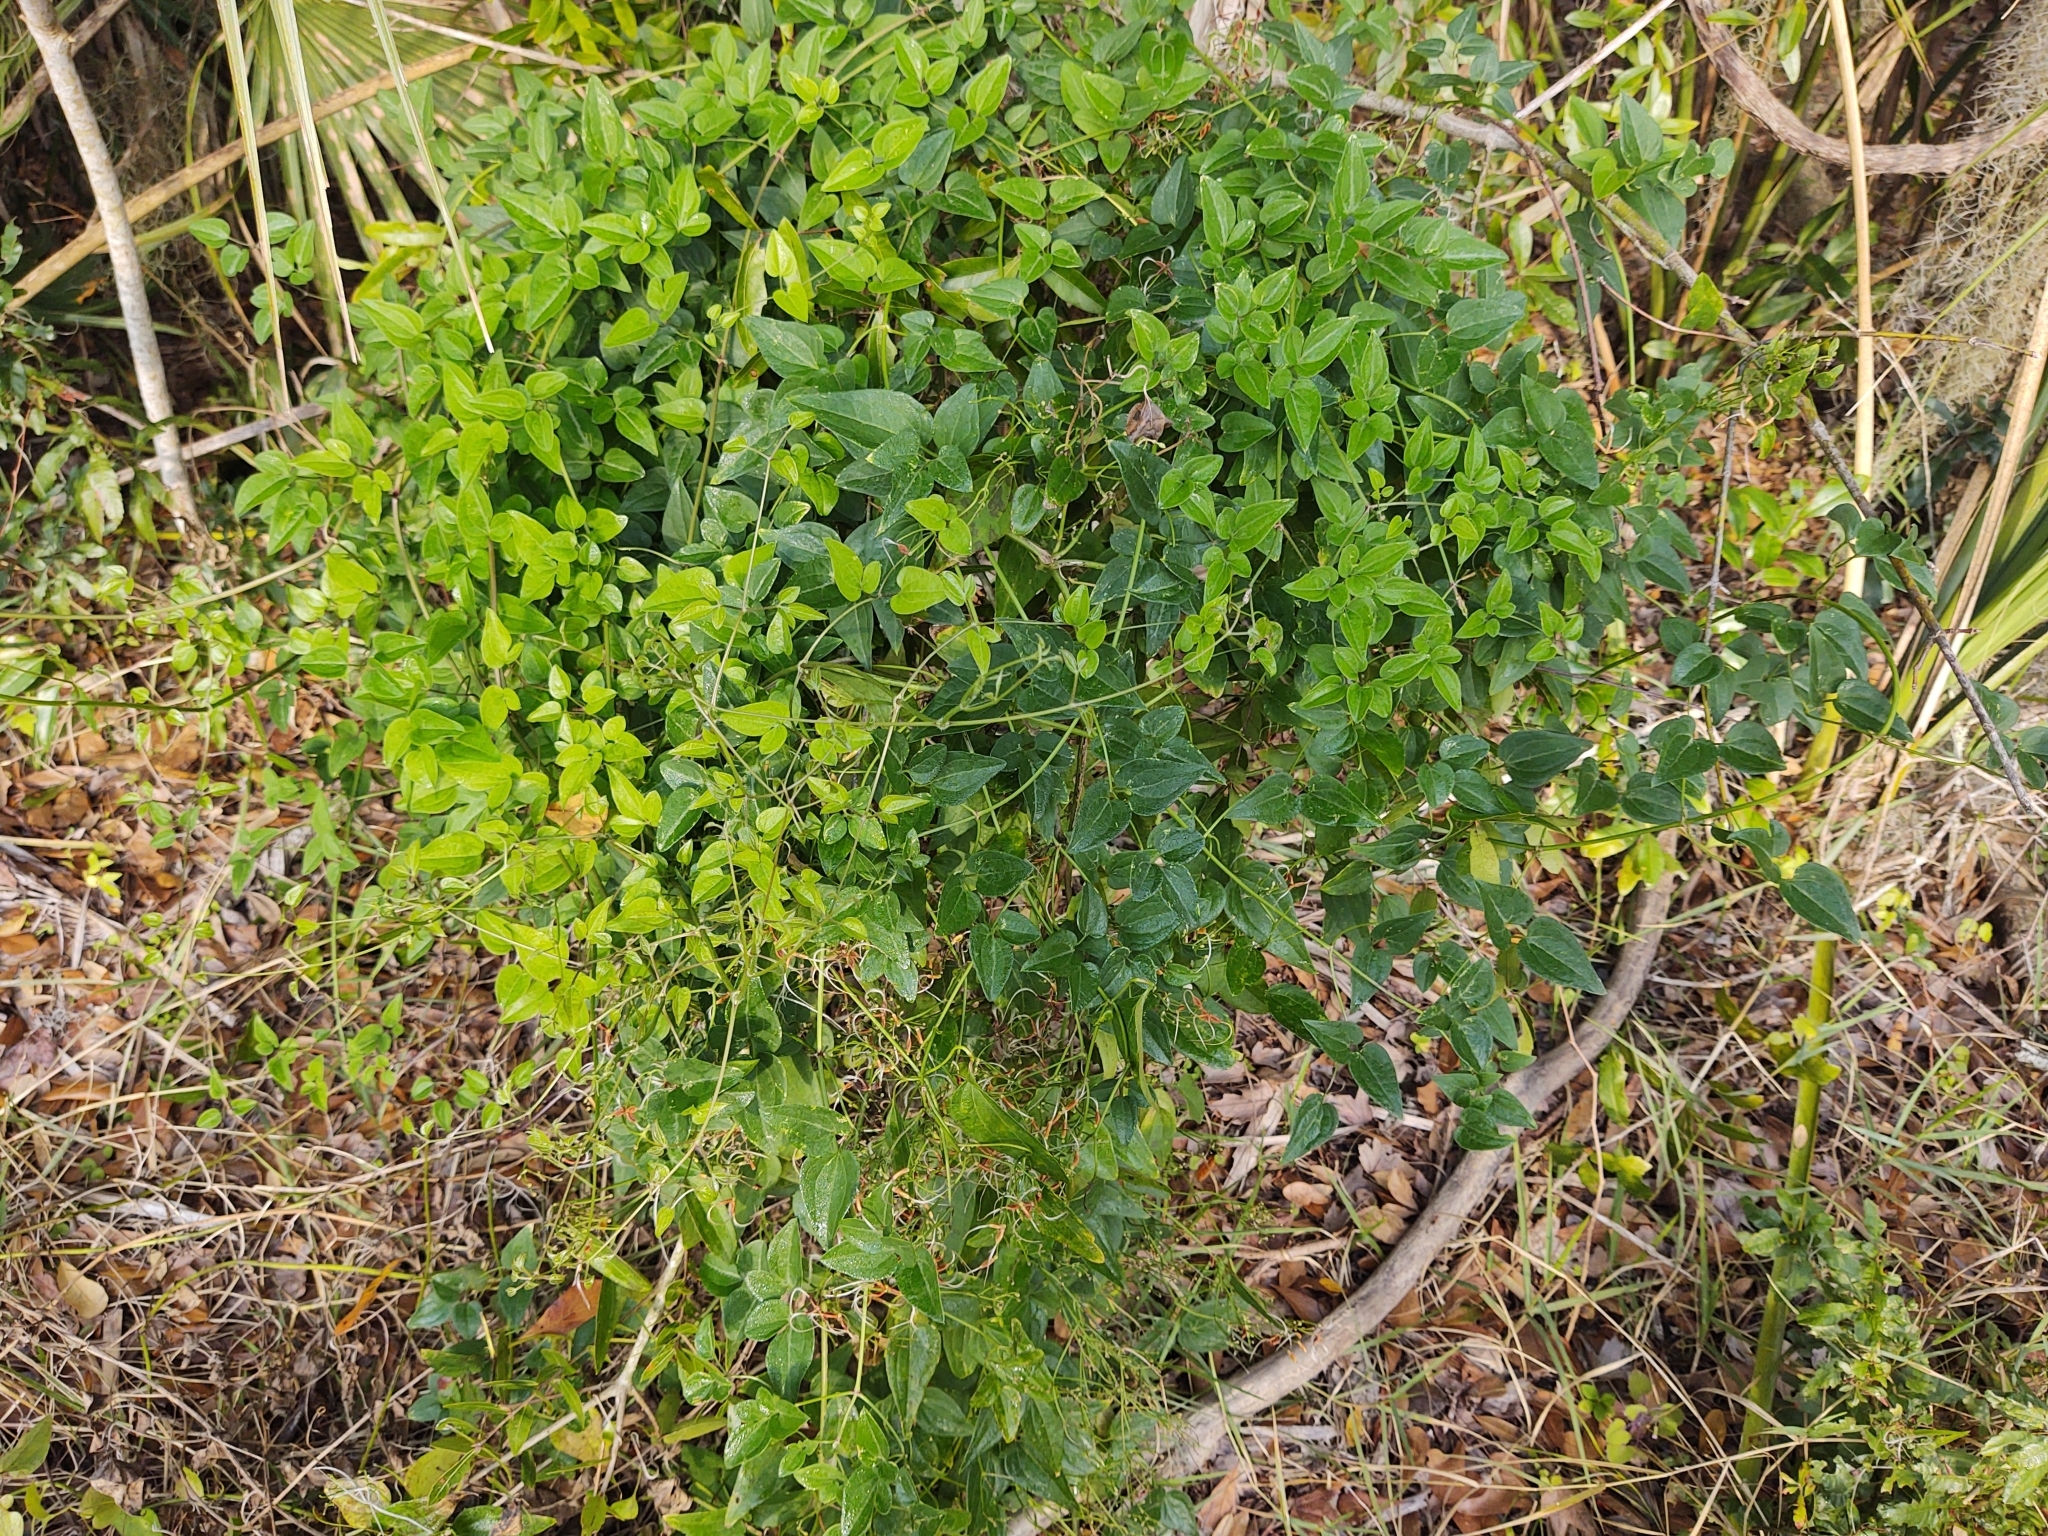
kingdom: Plantae
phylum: Tracheophyta
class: Magnoliopsida
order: Ranunculales
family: Ranunculaceae
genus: Clematis
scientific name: Clematis terniflora
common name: Sweet autumn clematis
